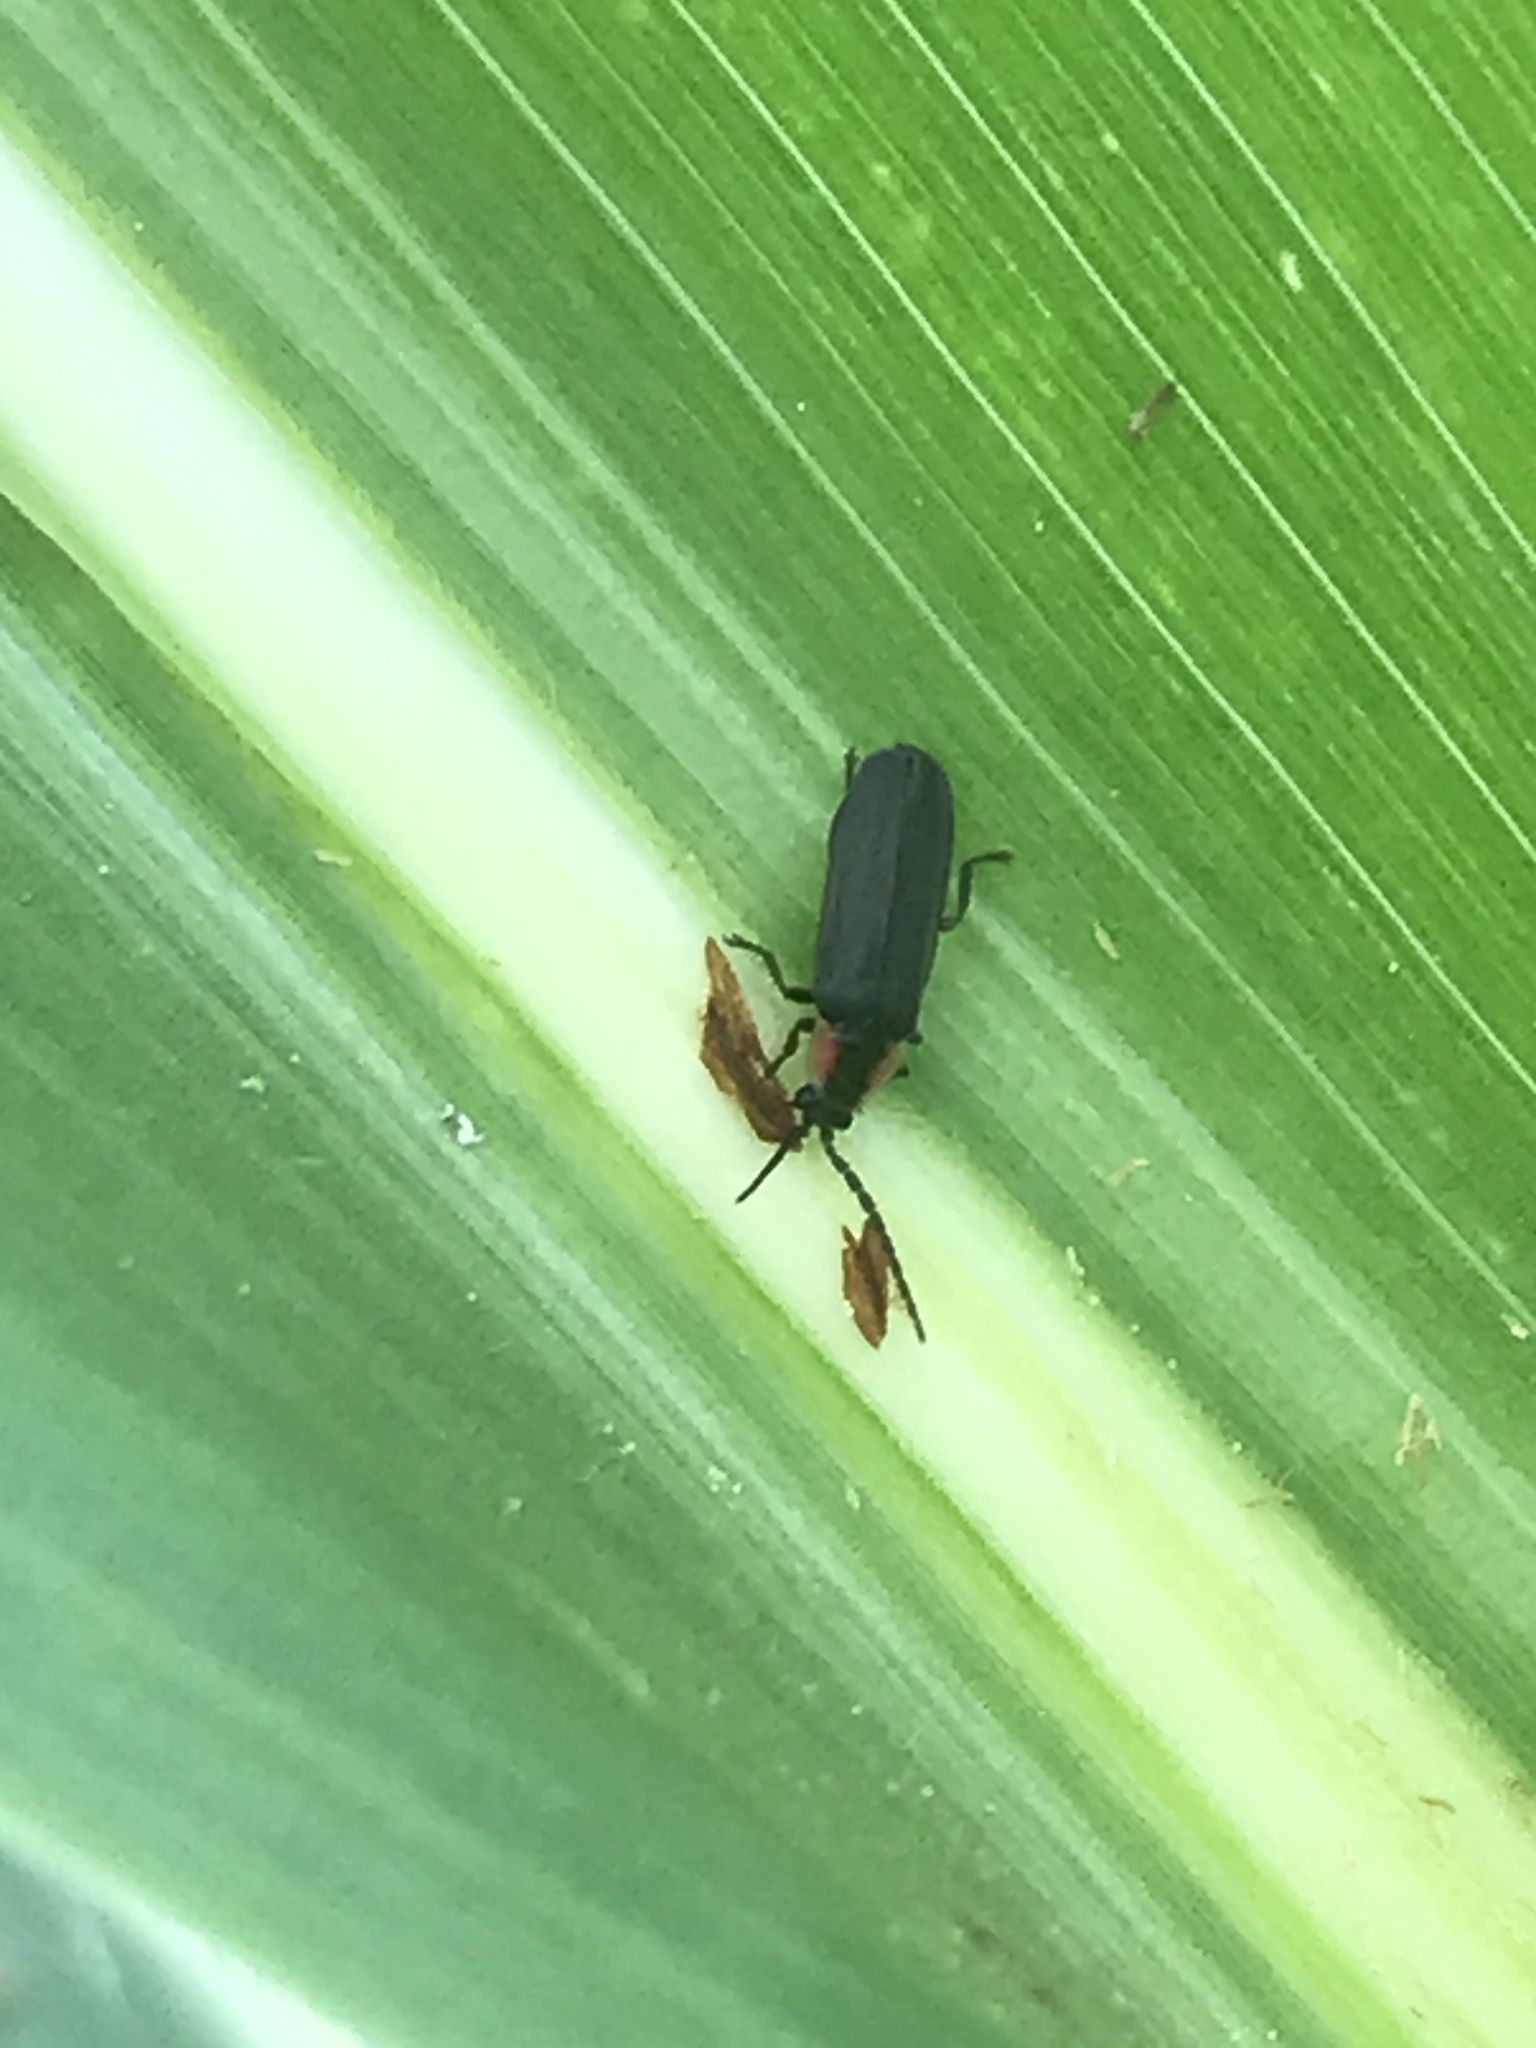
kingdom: Animalia
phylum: Arthropoda
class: Insecta
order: Coleoptera
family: Lampyridae
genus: Pyropyga
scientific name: Pyropyga
